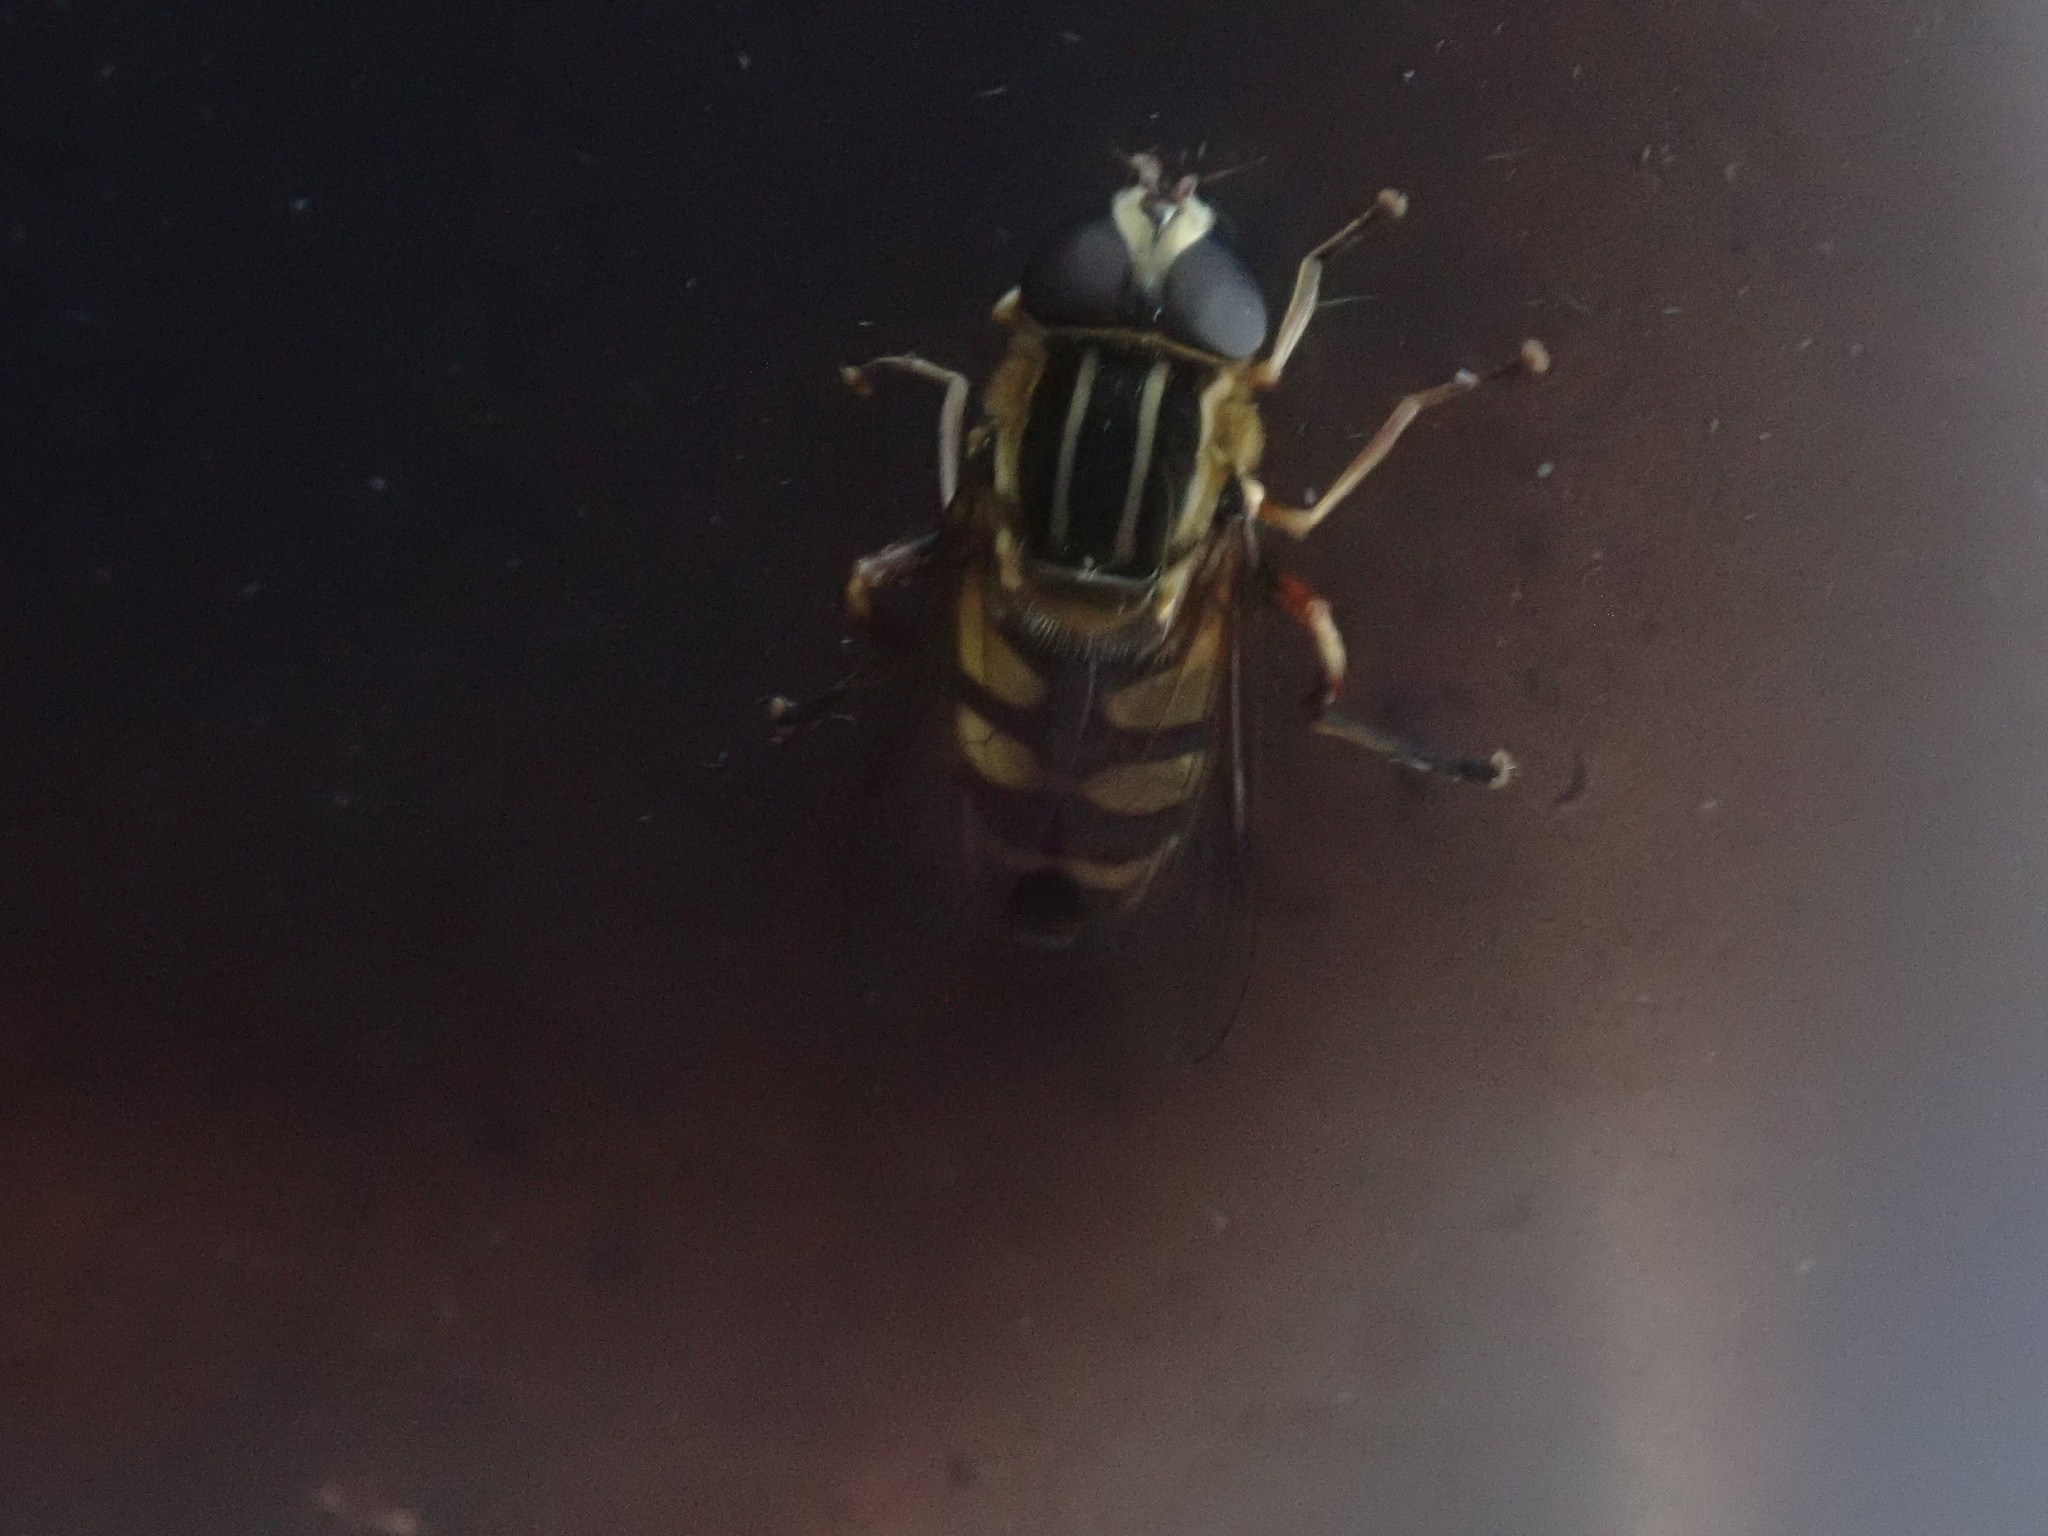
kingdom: Animalia
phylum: Arthropoda
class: Insecta
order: Diptera
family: Syrphidae
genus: Helophilus
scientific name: Helophilus fasciatus
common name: Narrow-headed marsh fly
